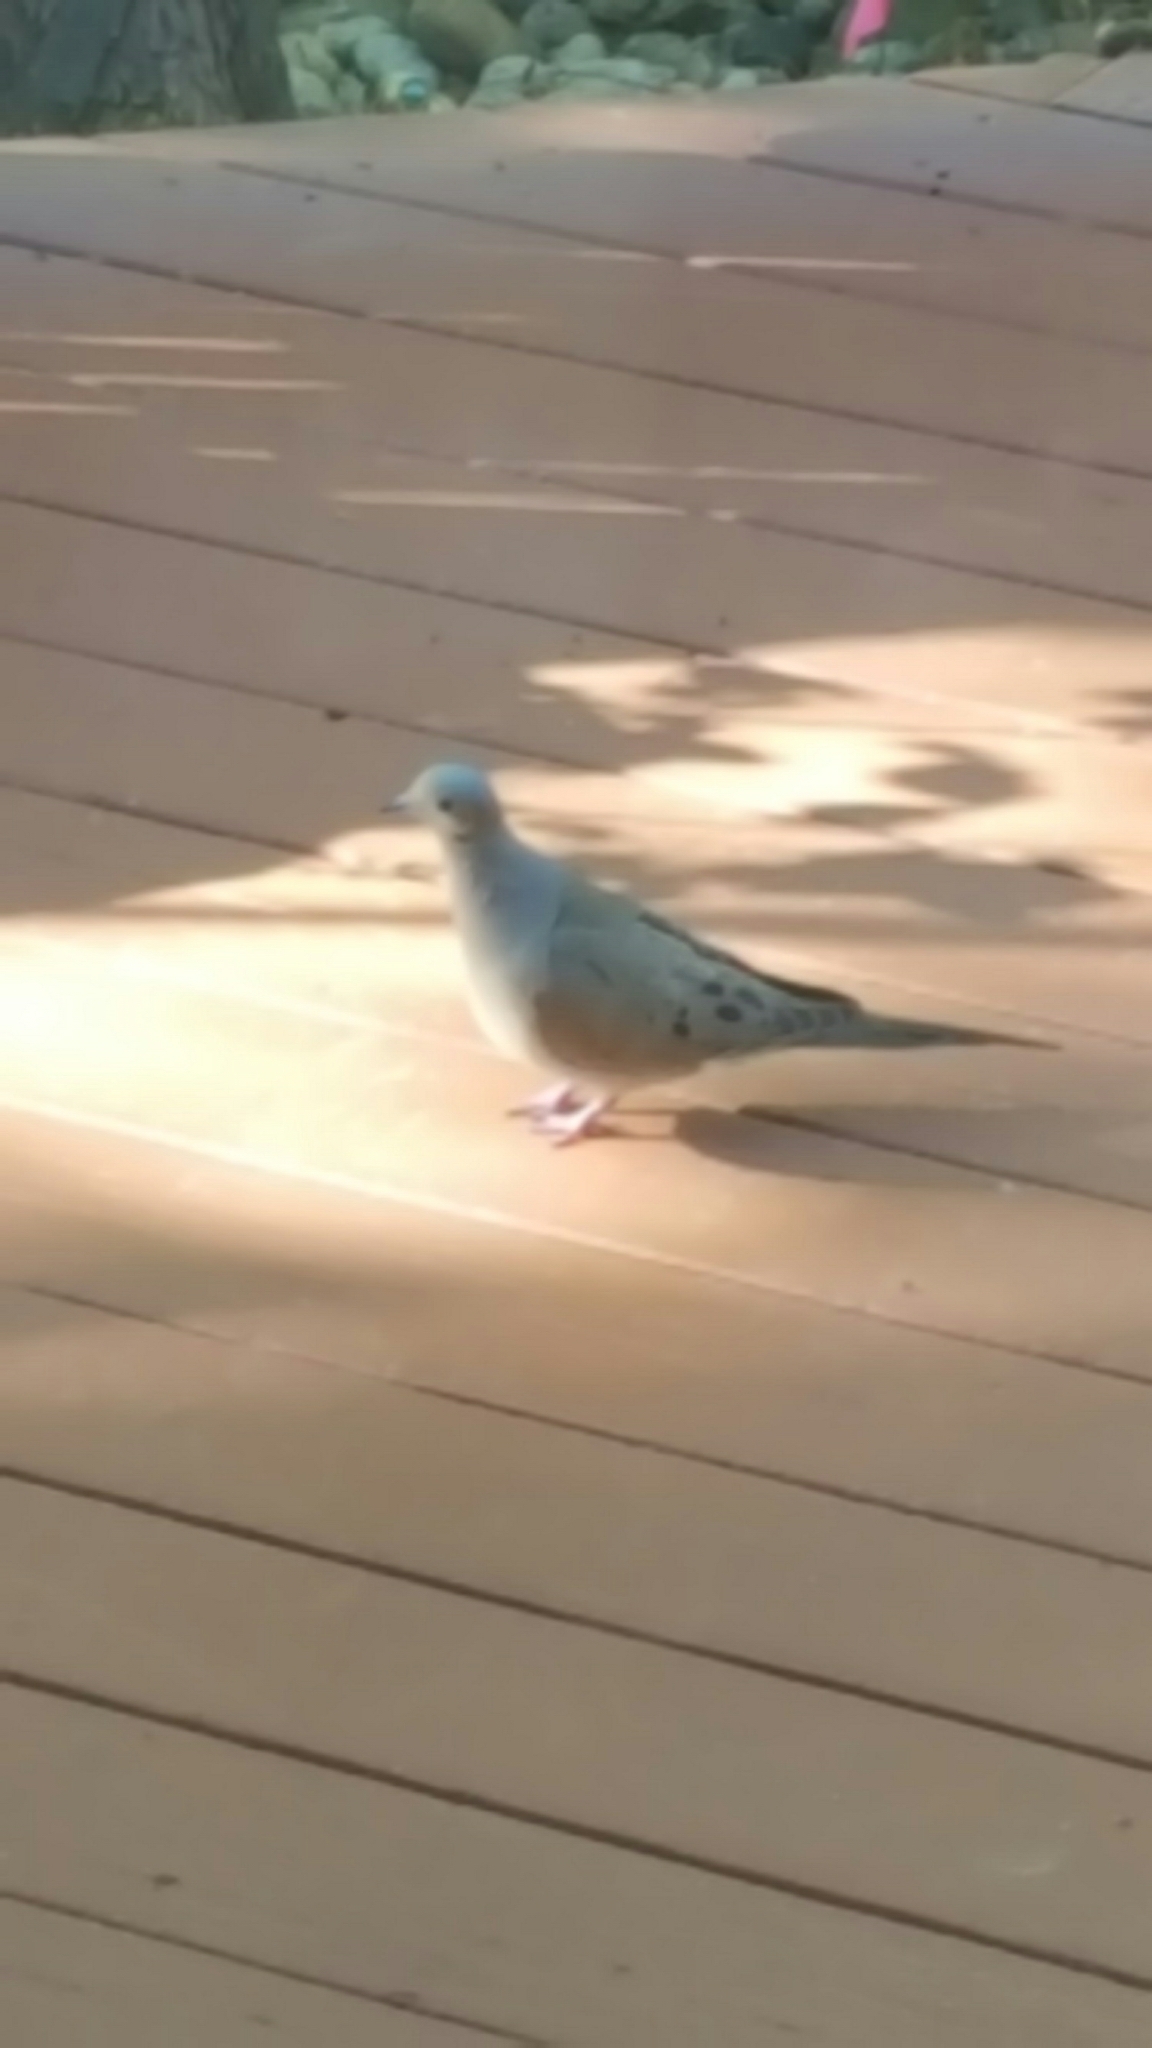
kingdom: Animalia
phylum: Chordata
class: Aves
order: Columbiformes
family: Columbidae
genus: Zenaida
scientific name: Zenaida macroura
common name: Mourning dove
